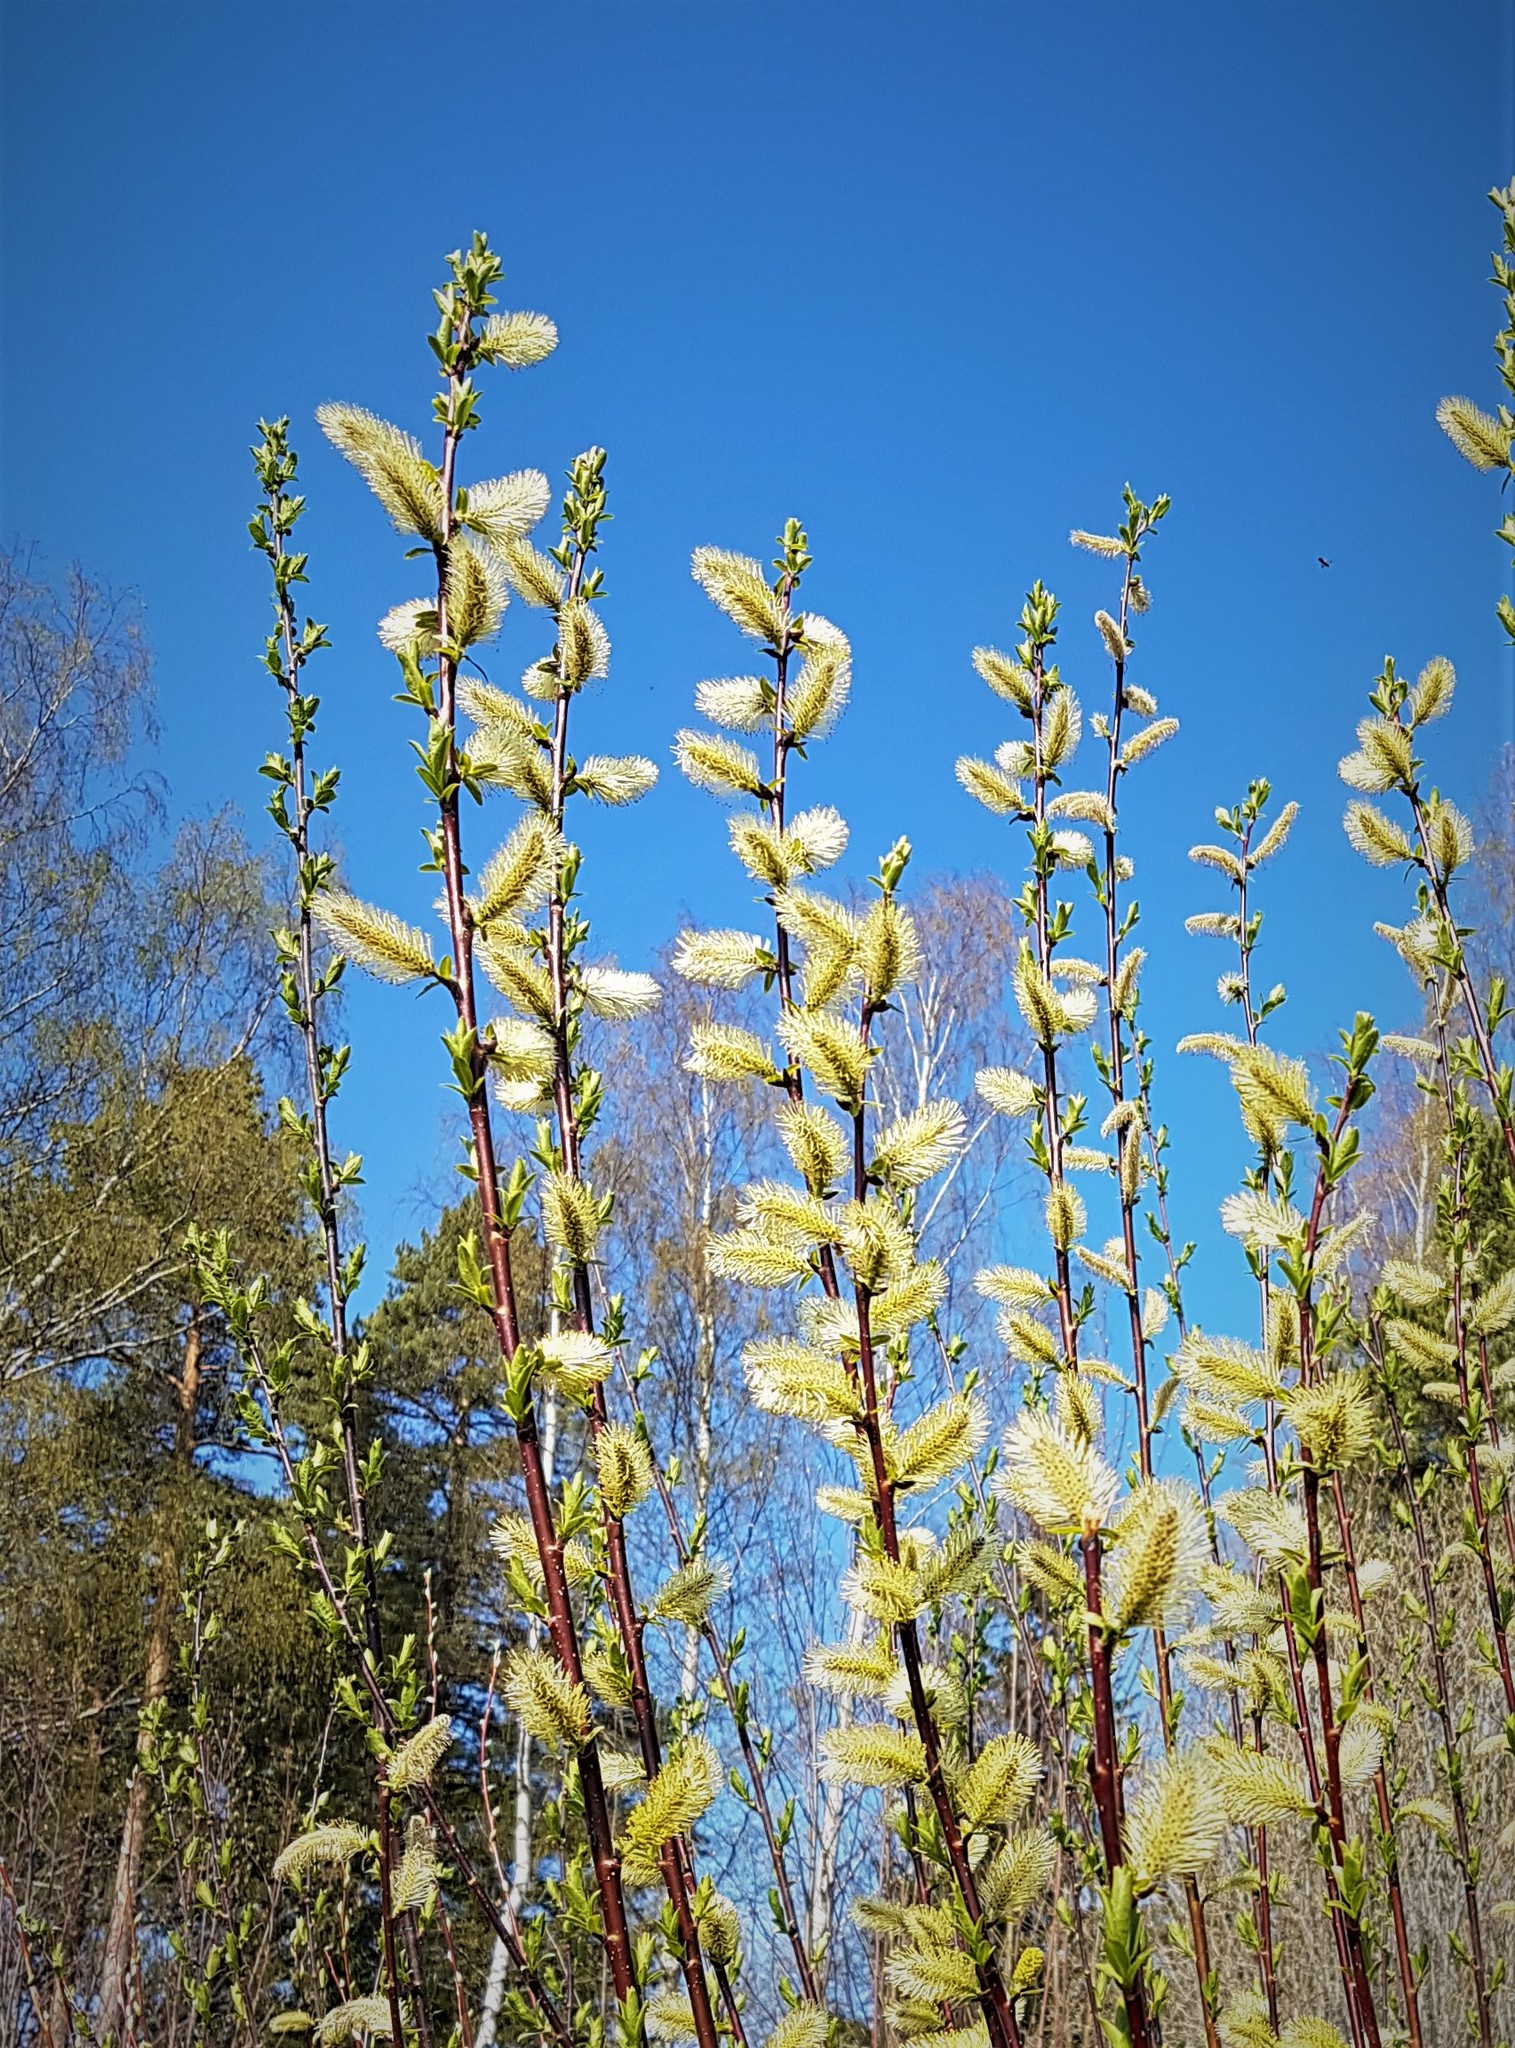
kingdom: Plantae
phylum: Tracheophyta
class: Magnoliopsida
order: Malpighiales
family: Salicaceae
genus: Salix
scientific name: Salix caprea
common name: Goat willow
